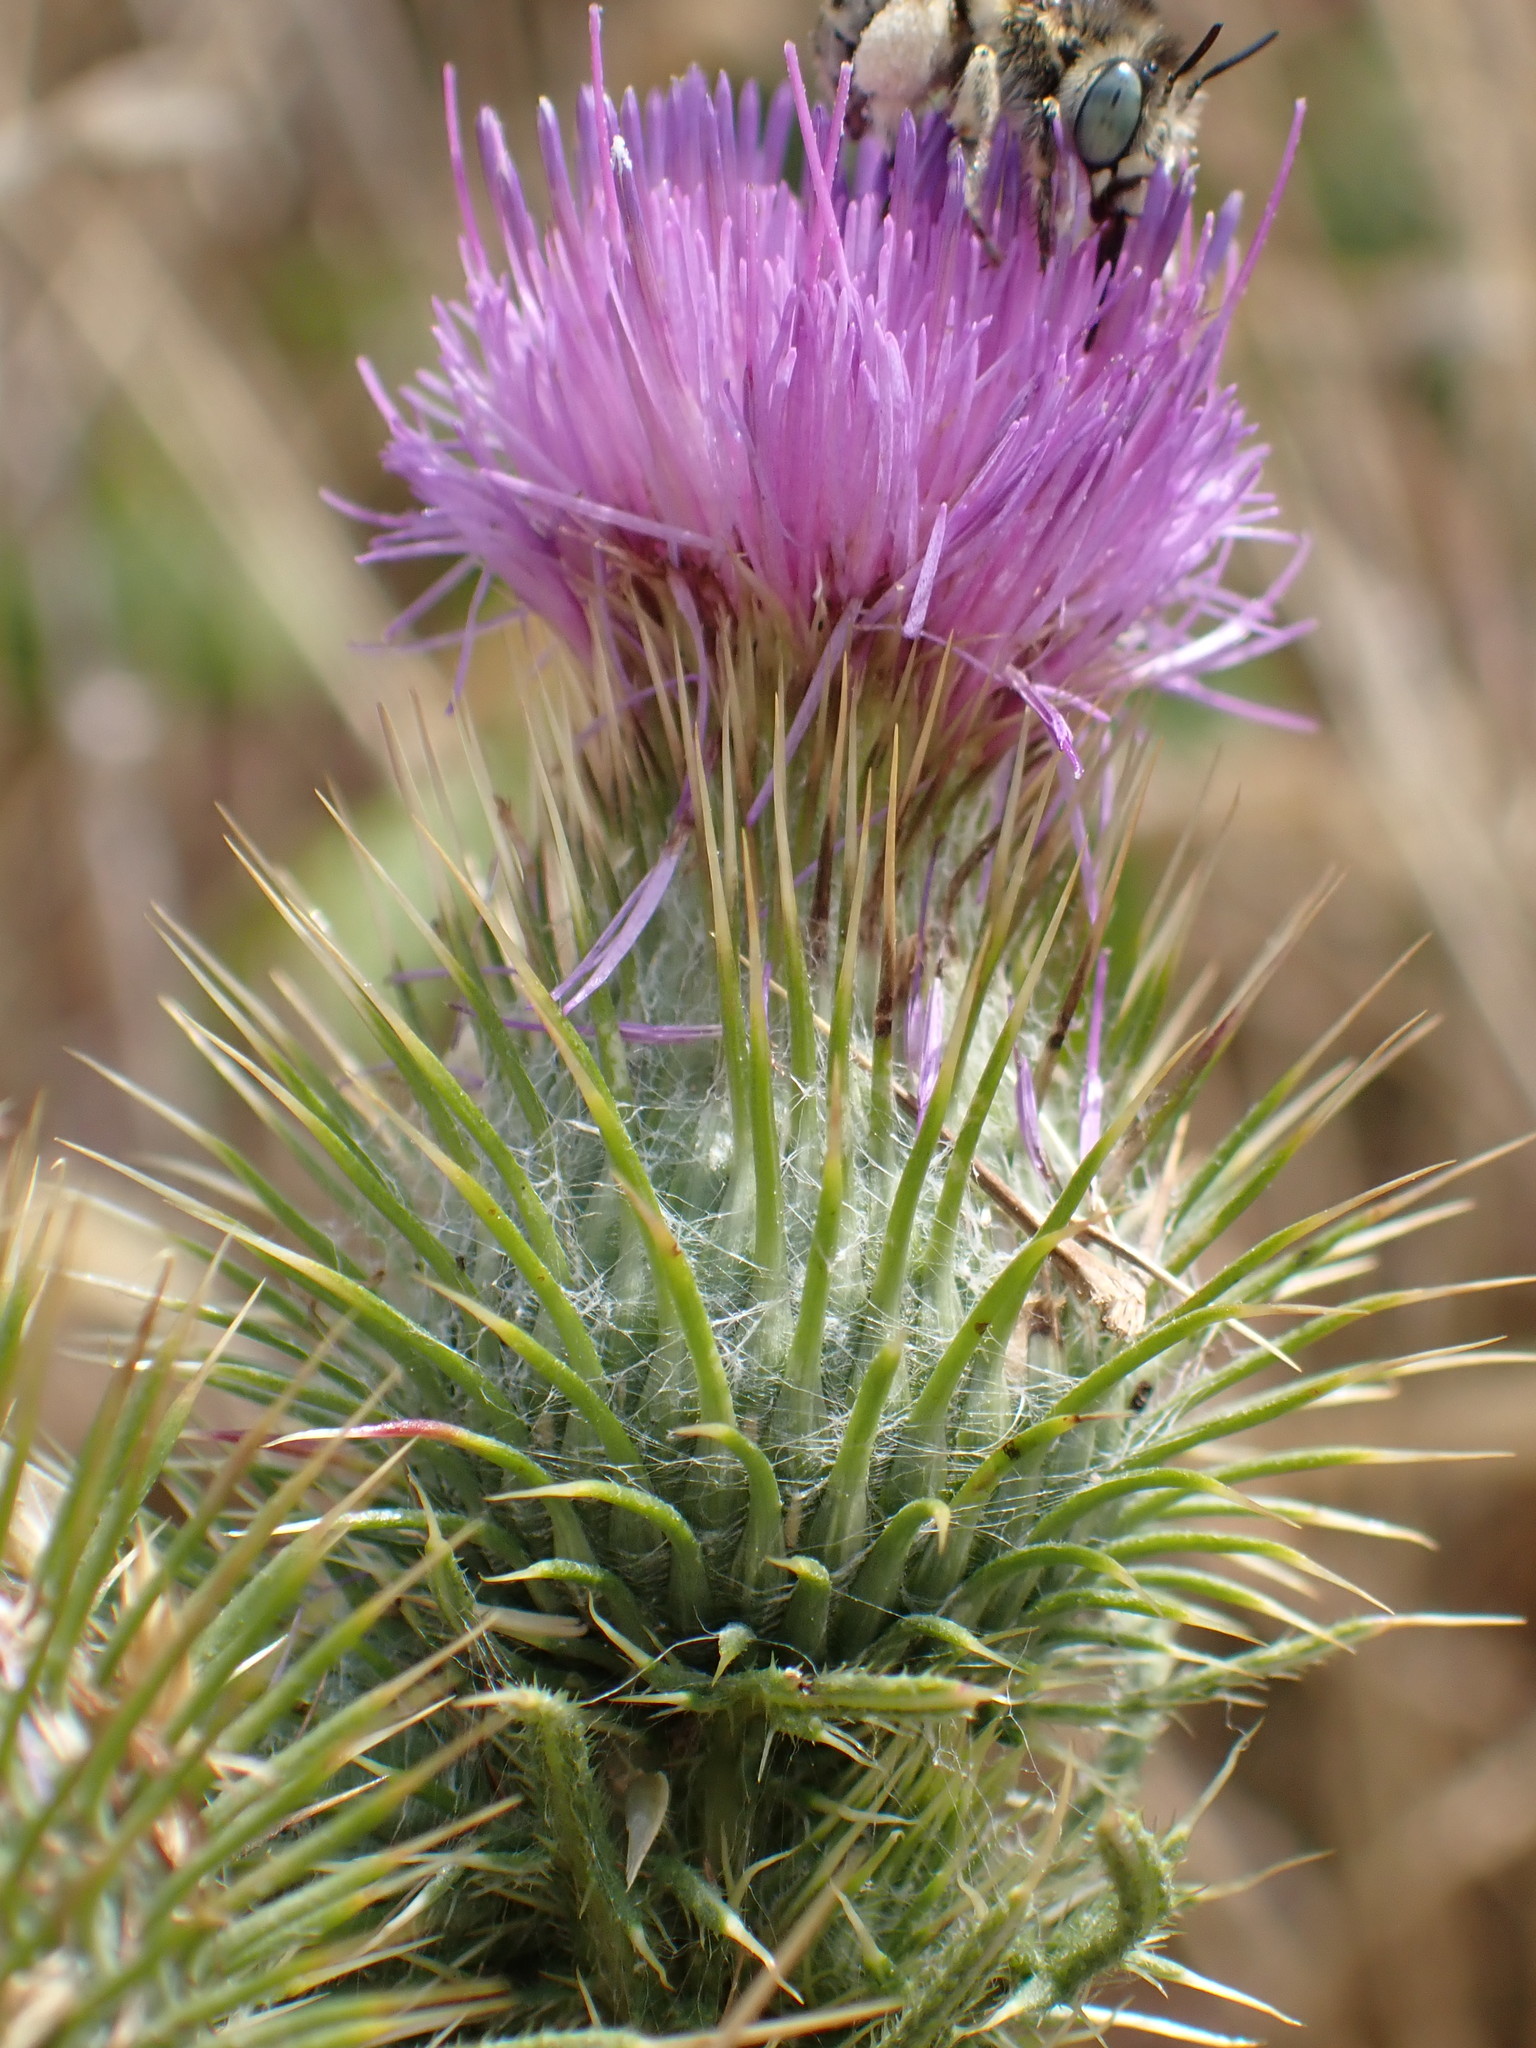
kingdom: Plantae
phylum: Tracheophyta
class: Magnoliopsida
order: Asterales
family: Asteraceae
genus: Cirsium
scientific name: Cirsium vulgare
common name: Bull thistle
